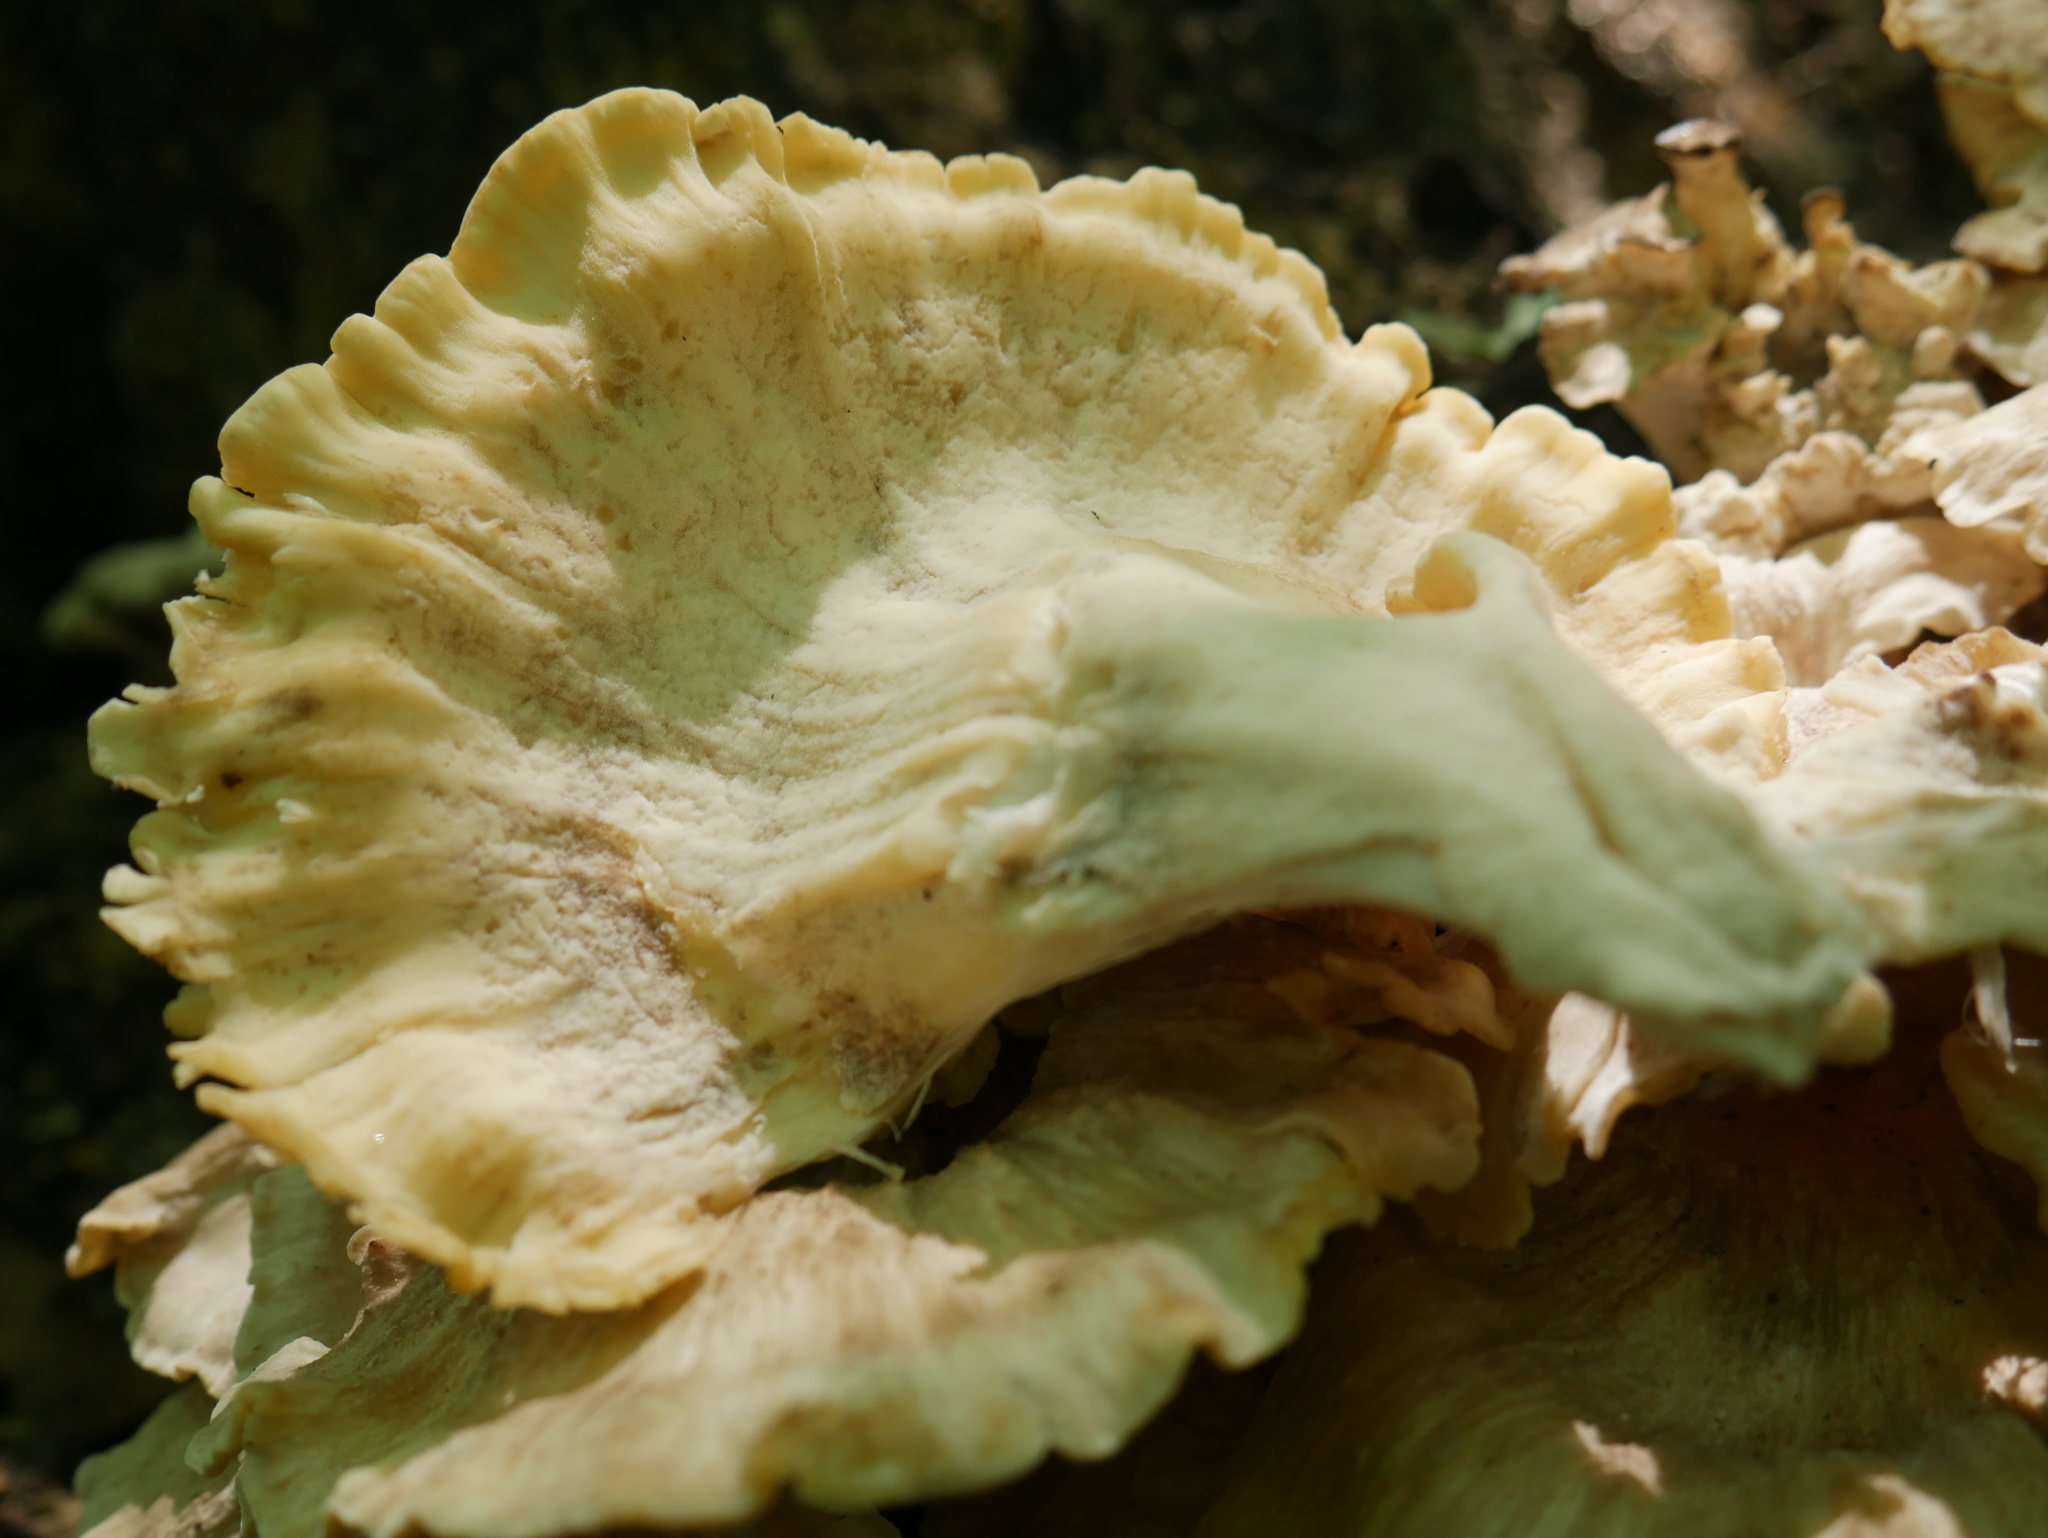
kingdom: Fungi
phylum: Basidiomycota
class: Agaricomycetes
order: Polyporales
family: Meripilaceae
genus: Meripilus
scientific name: Meripilus sumstinei
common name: Black-staining polypore
